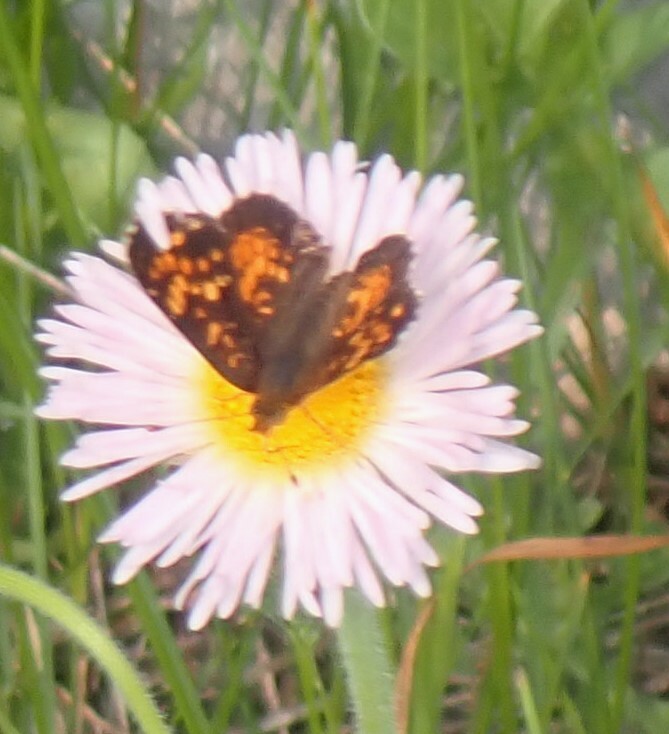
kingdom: Animalia
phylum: Arthropoda
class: Insecta
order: Lepidoptera
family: Nymphalidae
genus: Phyciodes
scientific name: Phyciodes tharos
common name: Pearl crescent
